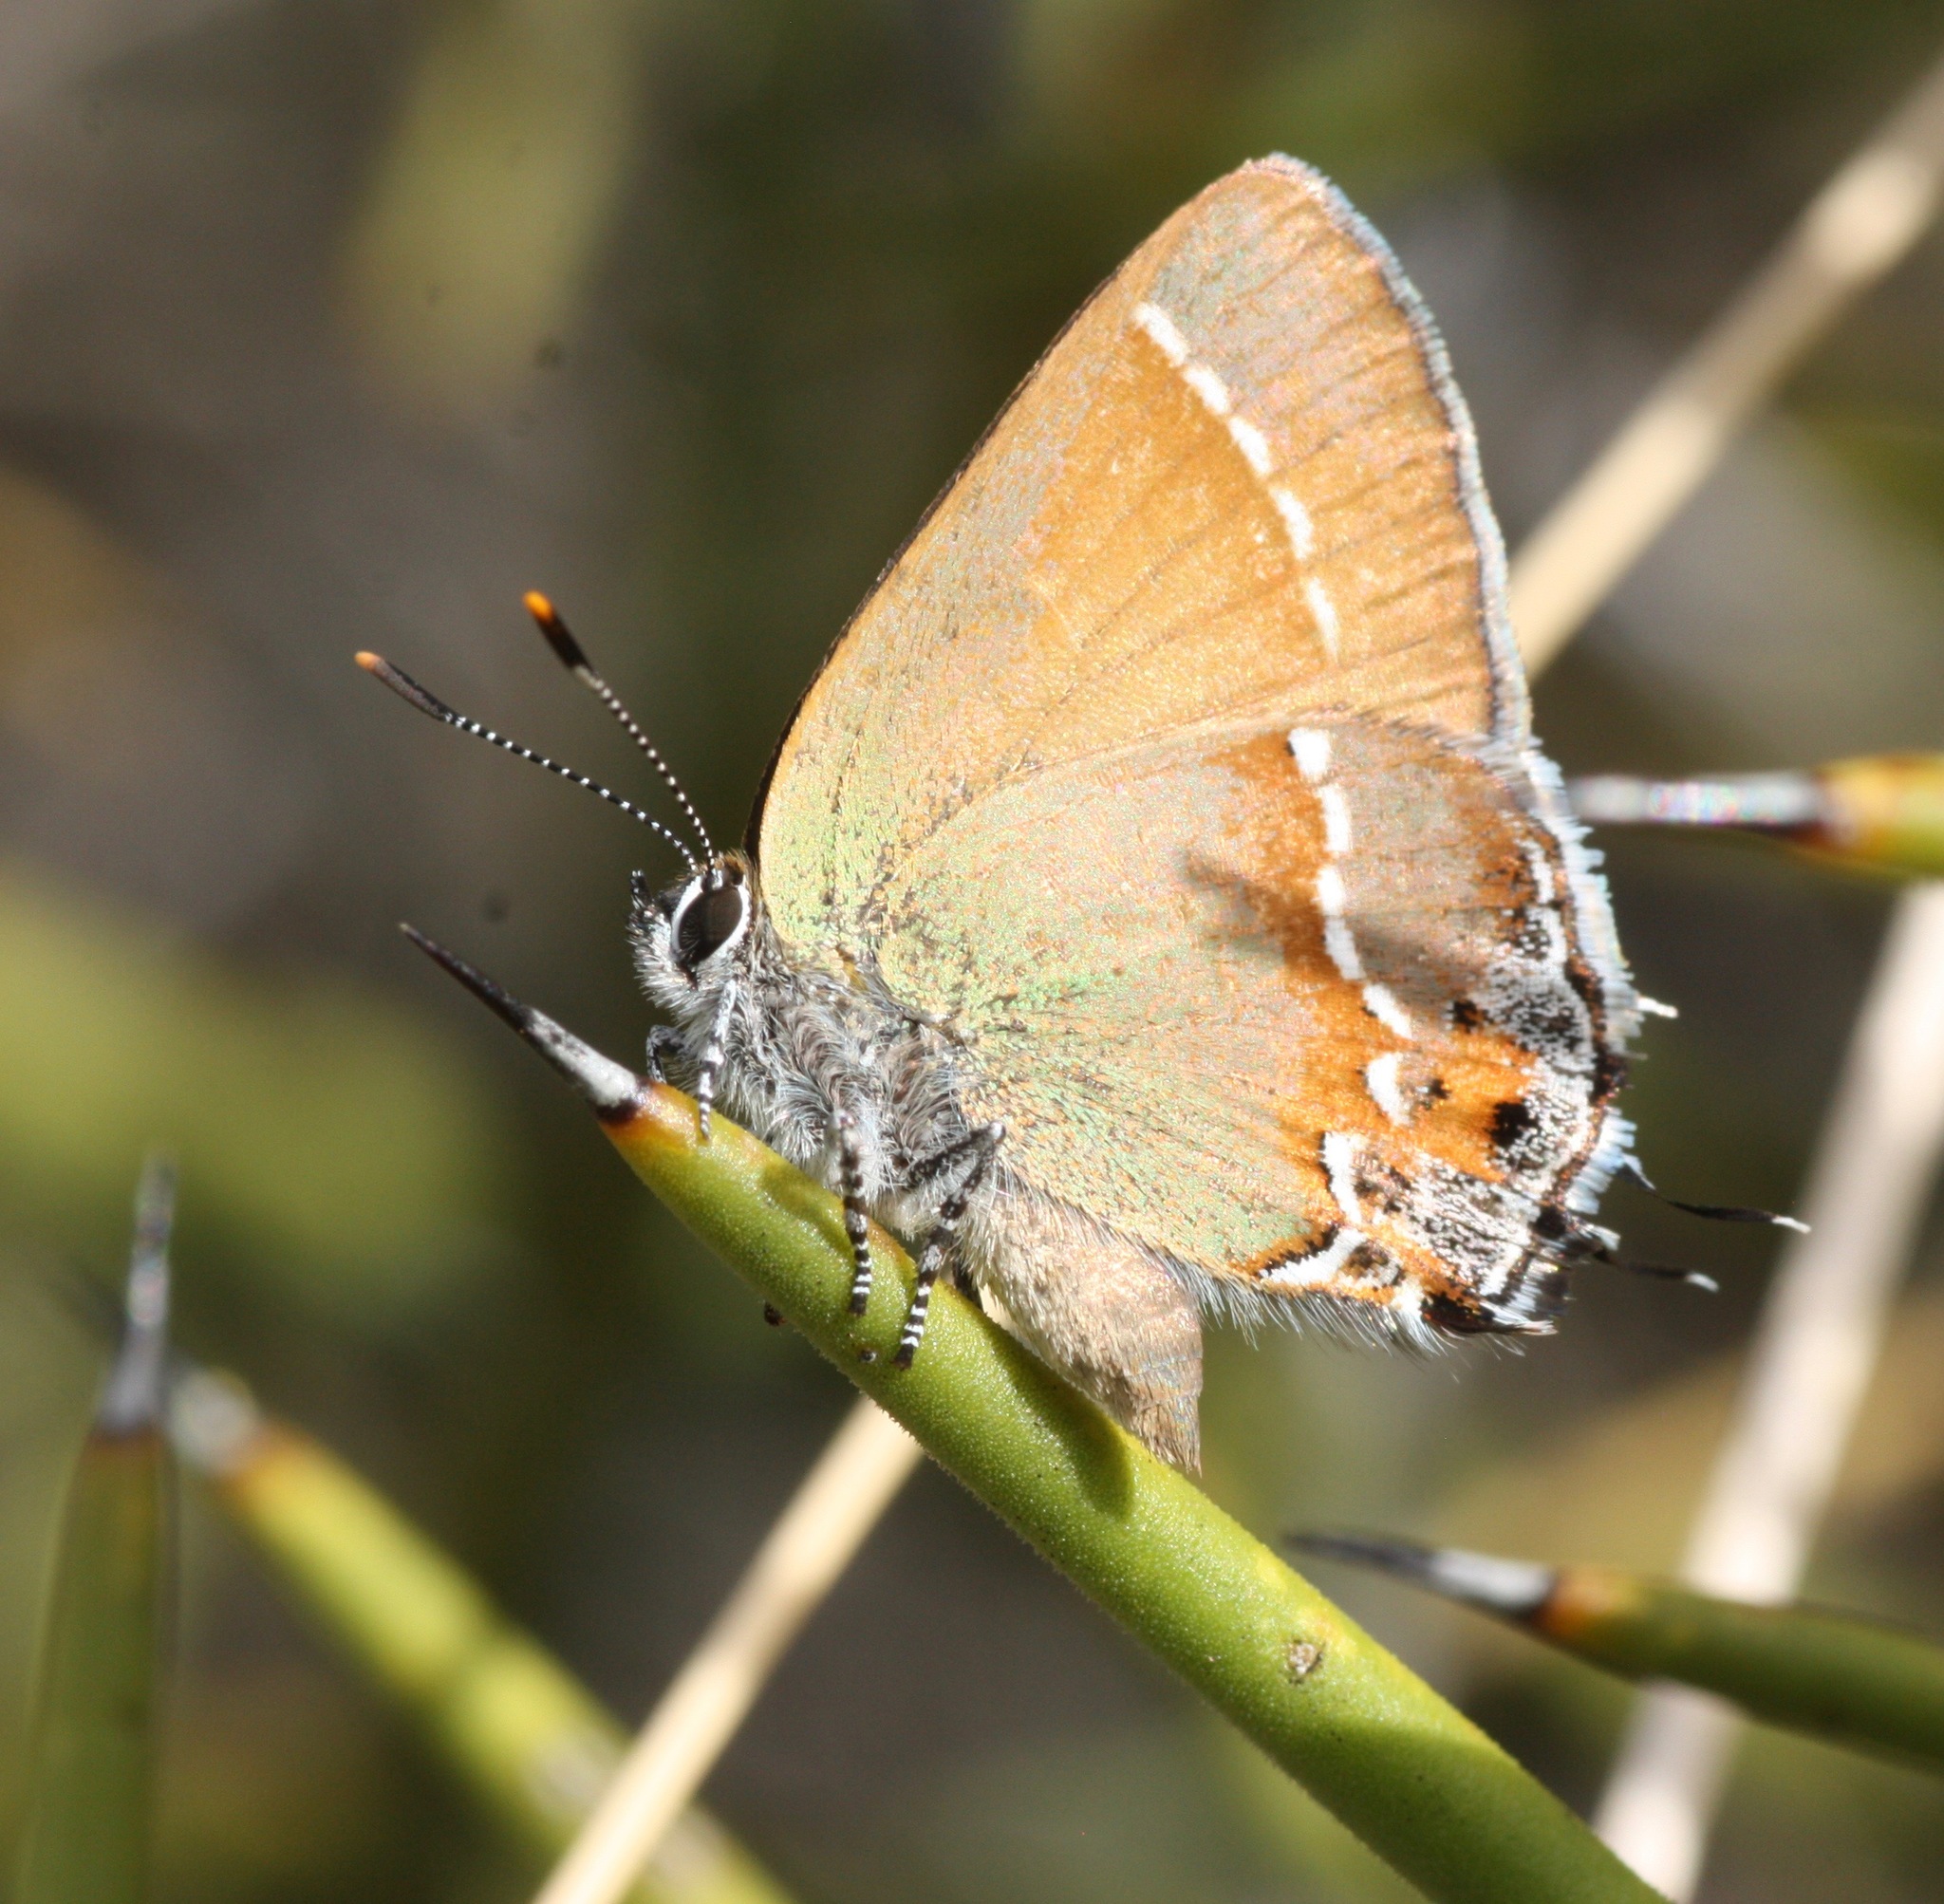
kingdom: Animalia
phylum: Arthropoda
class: Insecta
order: Lepidoptera
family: Lycaenidae
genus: Mitoura
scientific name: Mitoura gryneus
